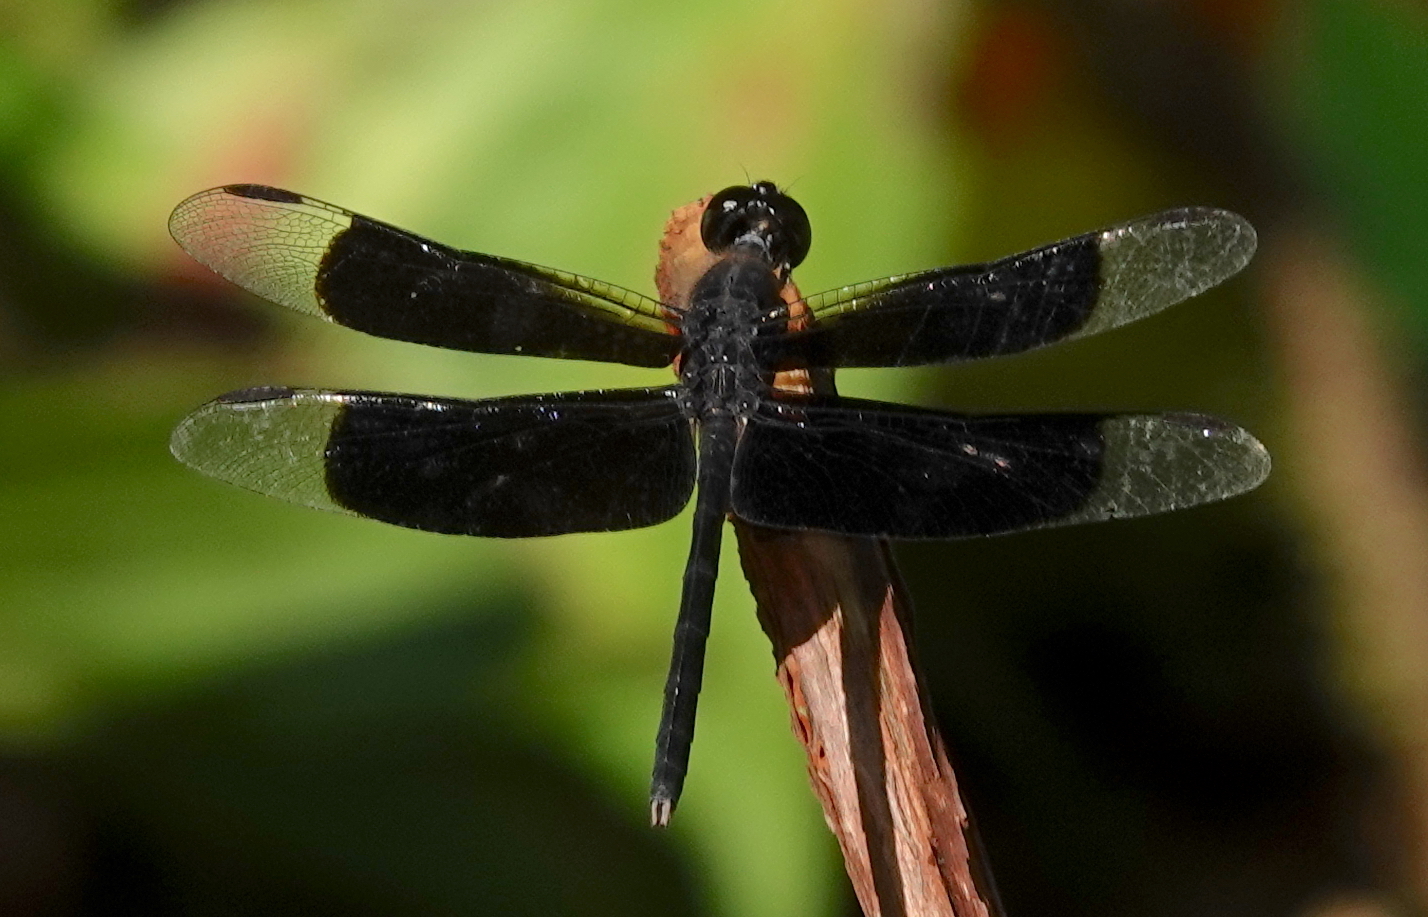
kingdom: Animalia
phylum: Arthropoda
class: Insecta
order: Odonata
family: Libellulidae
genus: Erythrodiplax
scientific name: Erythrodiplax funerea
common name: Black-winged dragonlet
